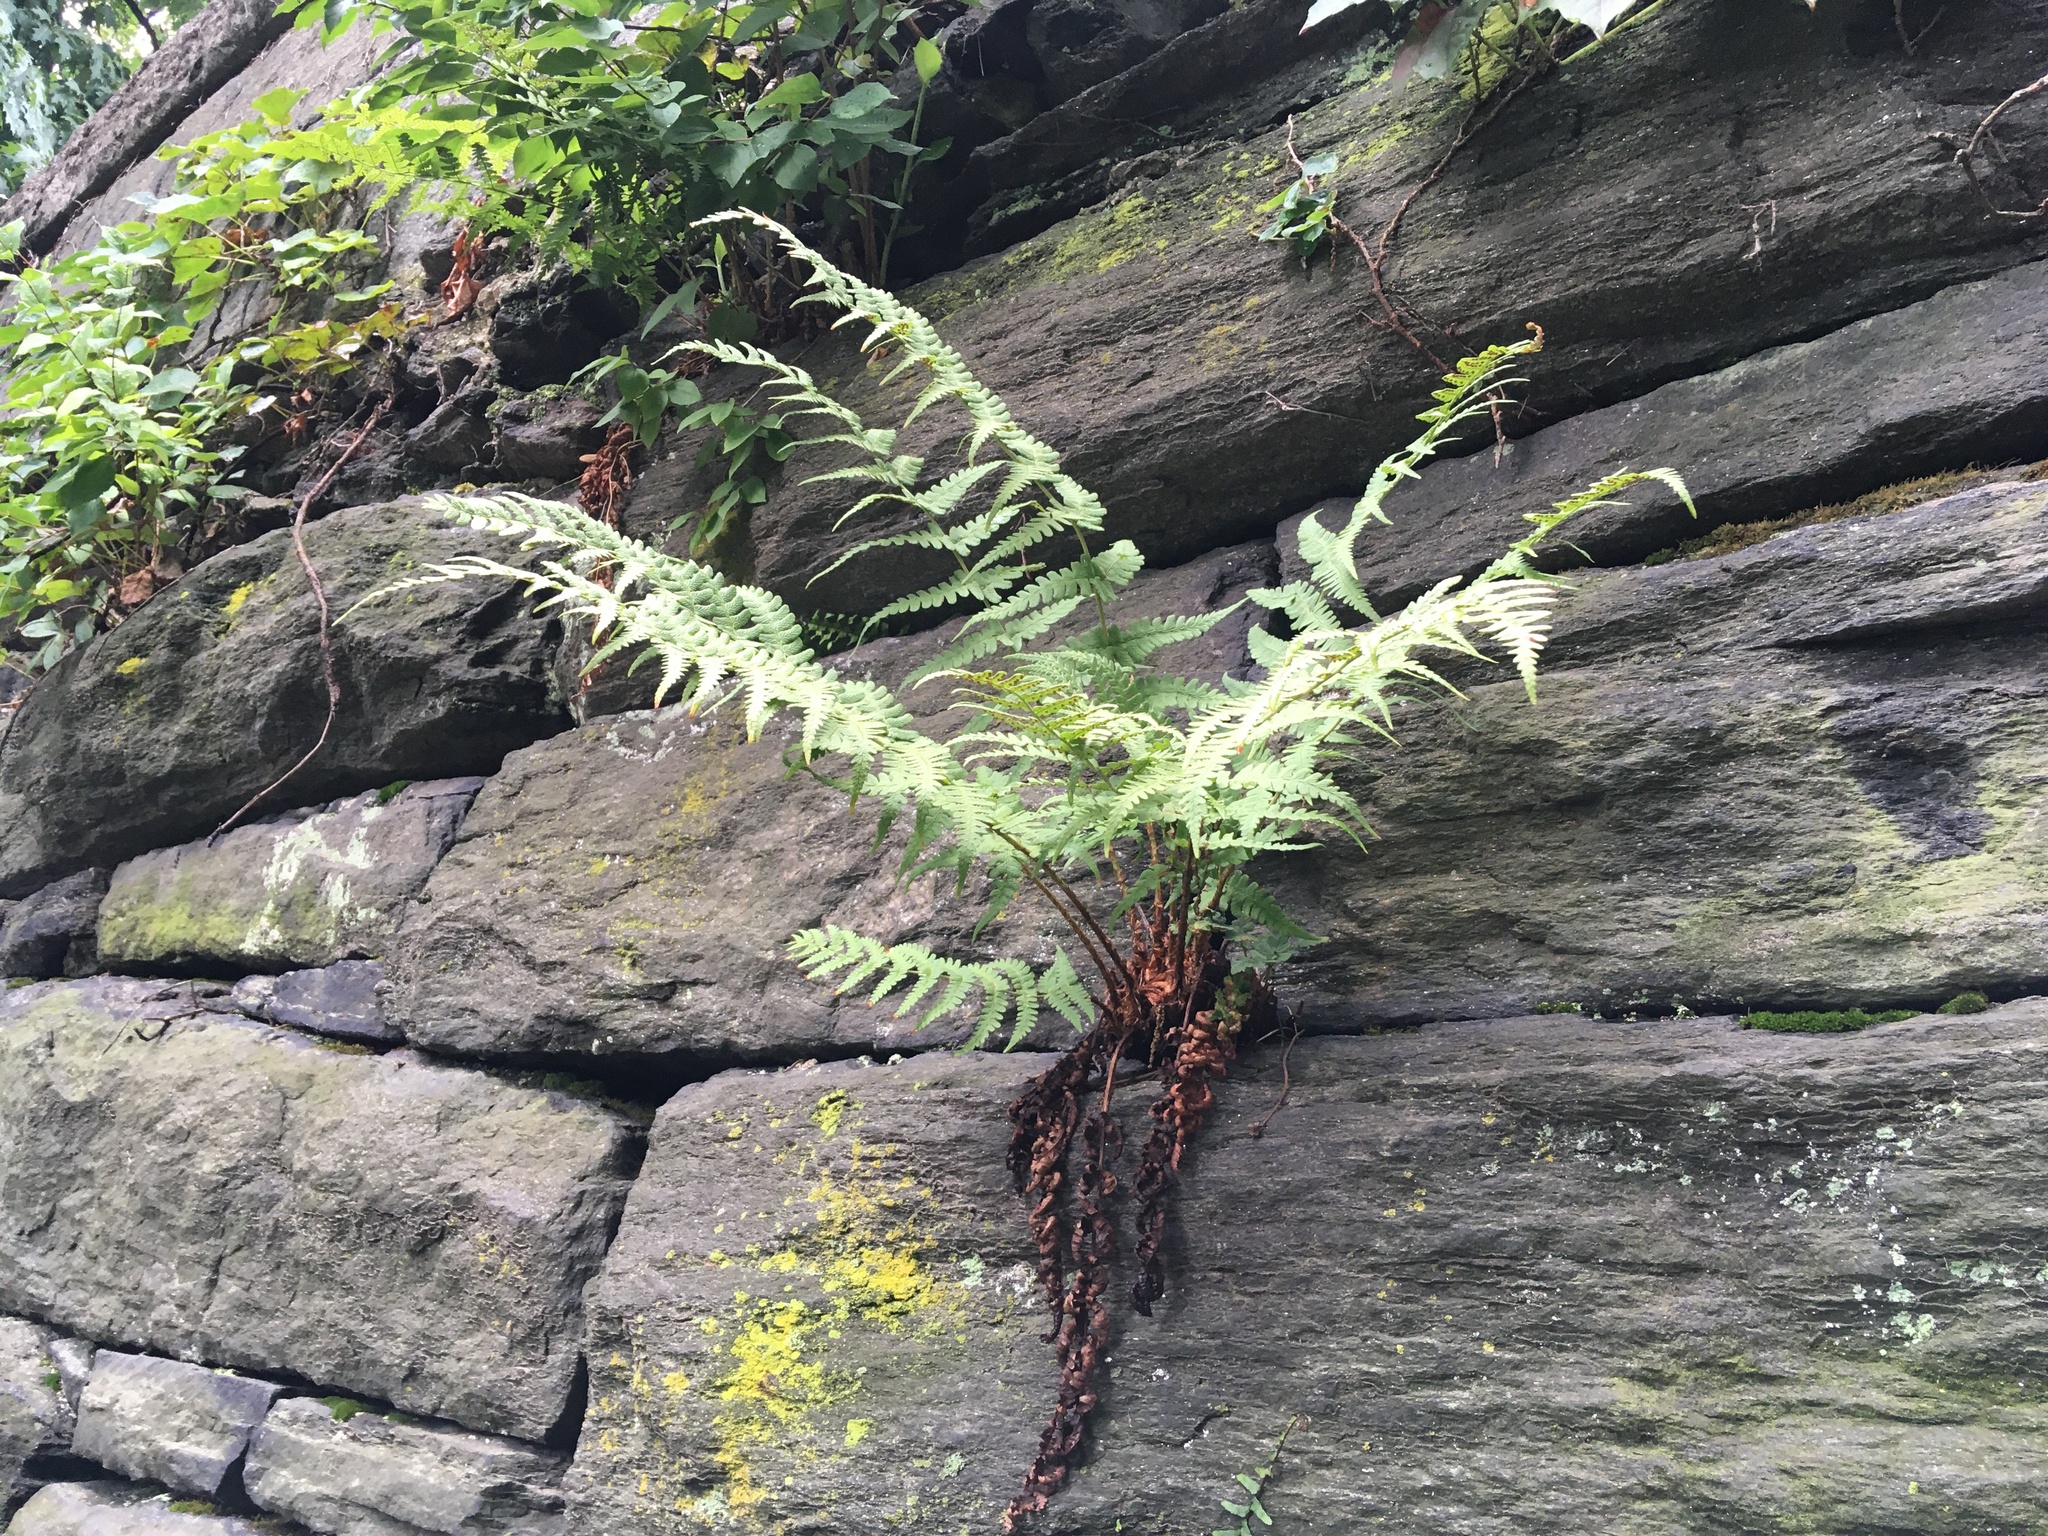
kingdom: Plantae
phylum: Tracheophyta
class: Polypodiopsida
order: Polypodiales
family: Dryopteridaceae
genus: Dryopteris
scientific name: Dryopteris marginalis
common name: Marginal wood fern
